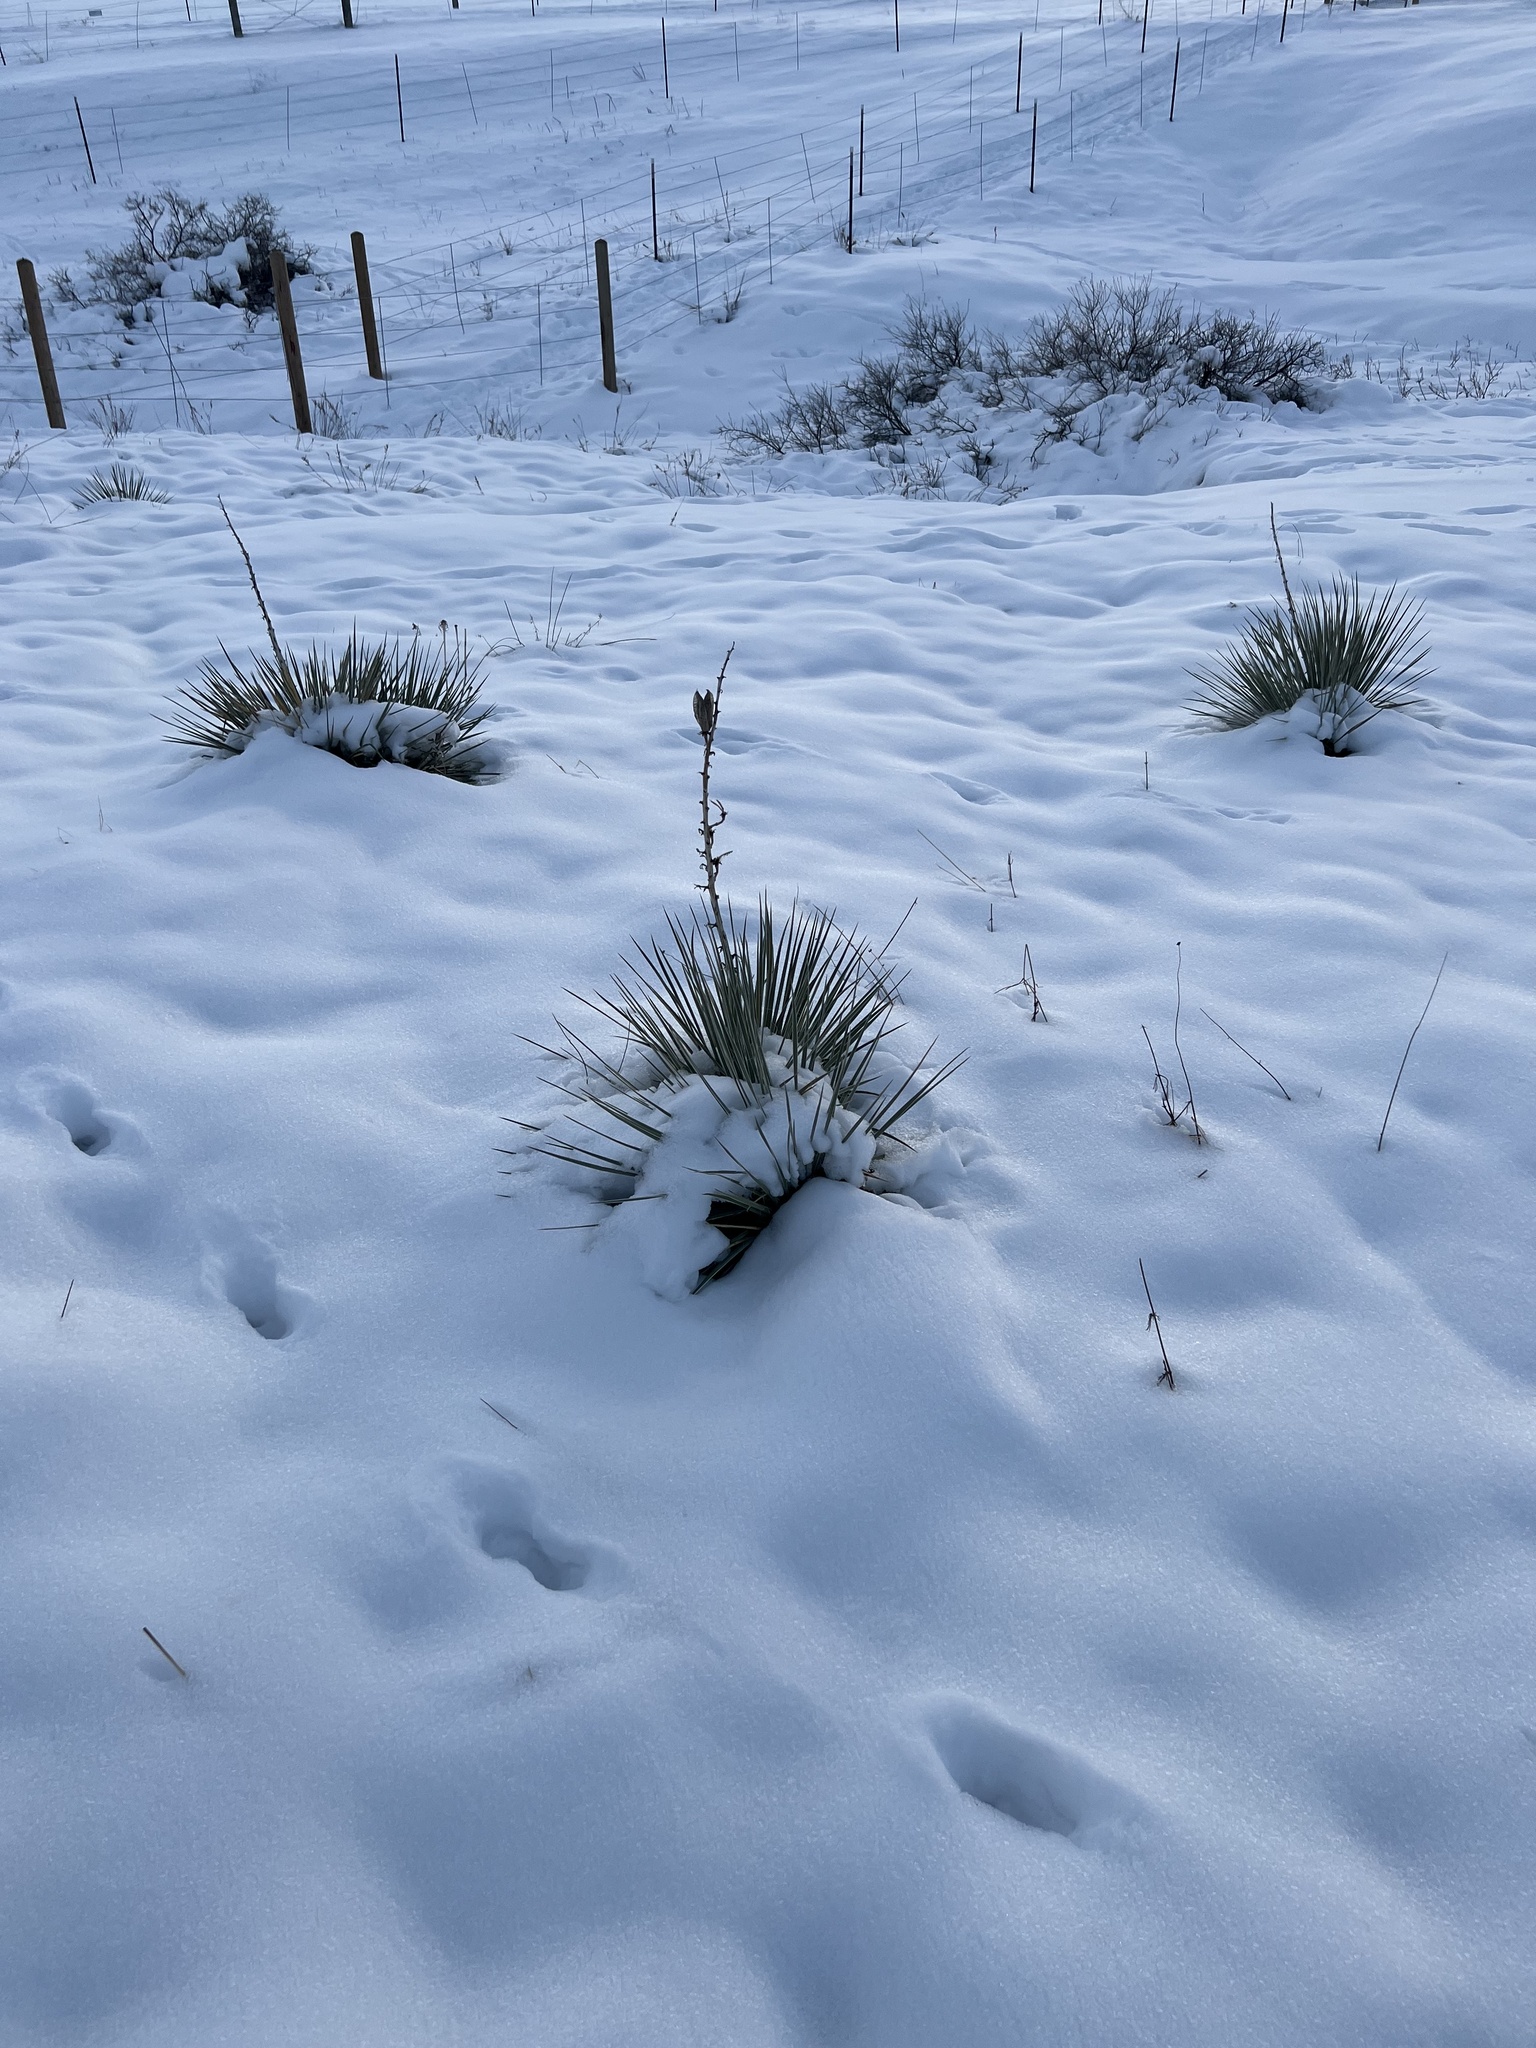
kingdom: Plantae
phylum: Tracheophyta
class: Liliopsida
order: Asparagales
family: Asparagaceae
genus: Yucca
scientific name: Yucca glauca
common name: Great plains yucca
